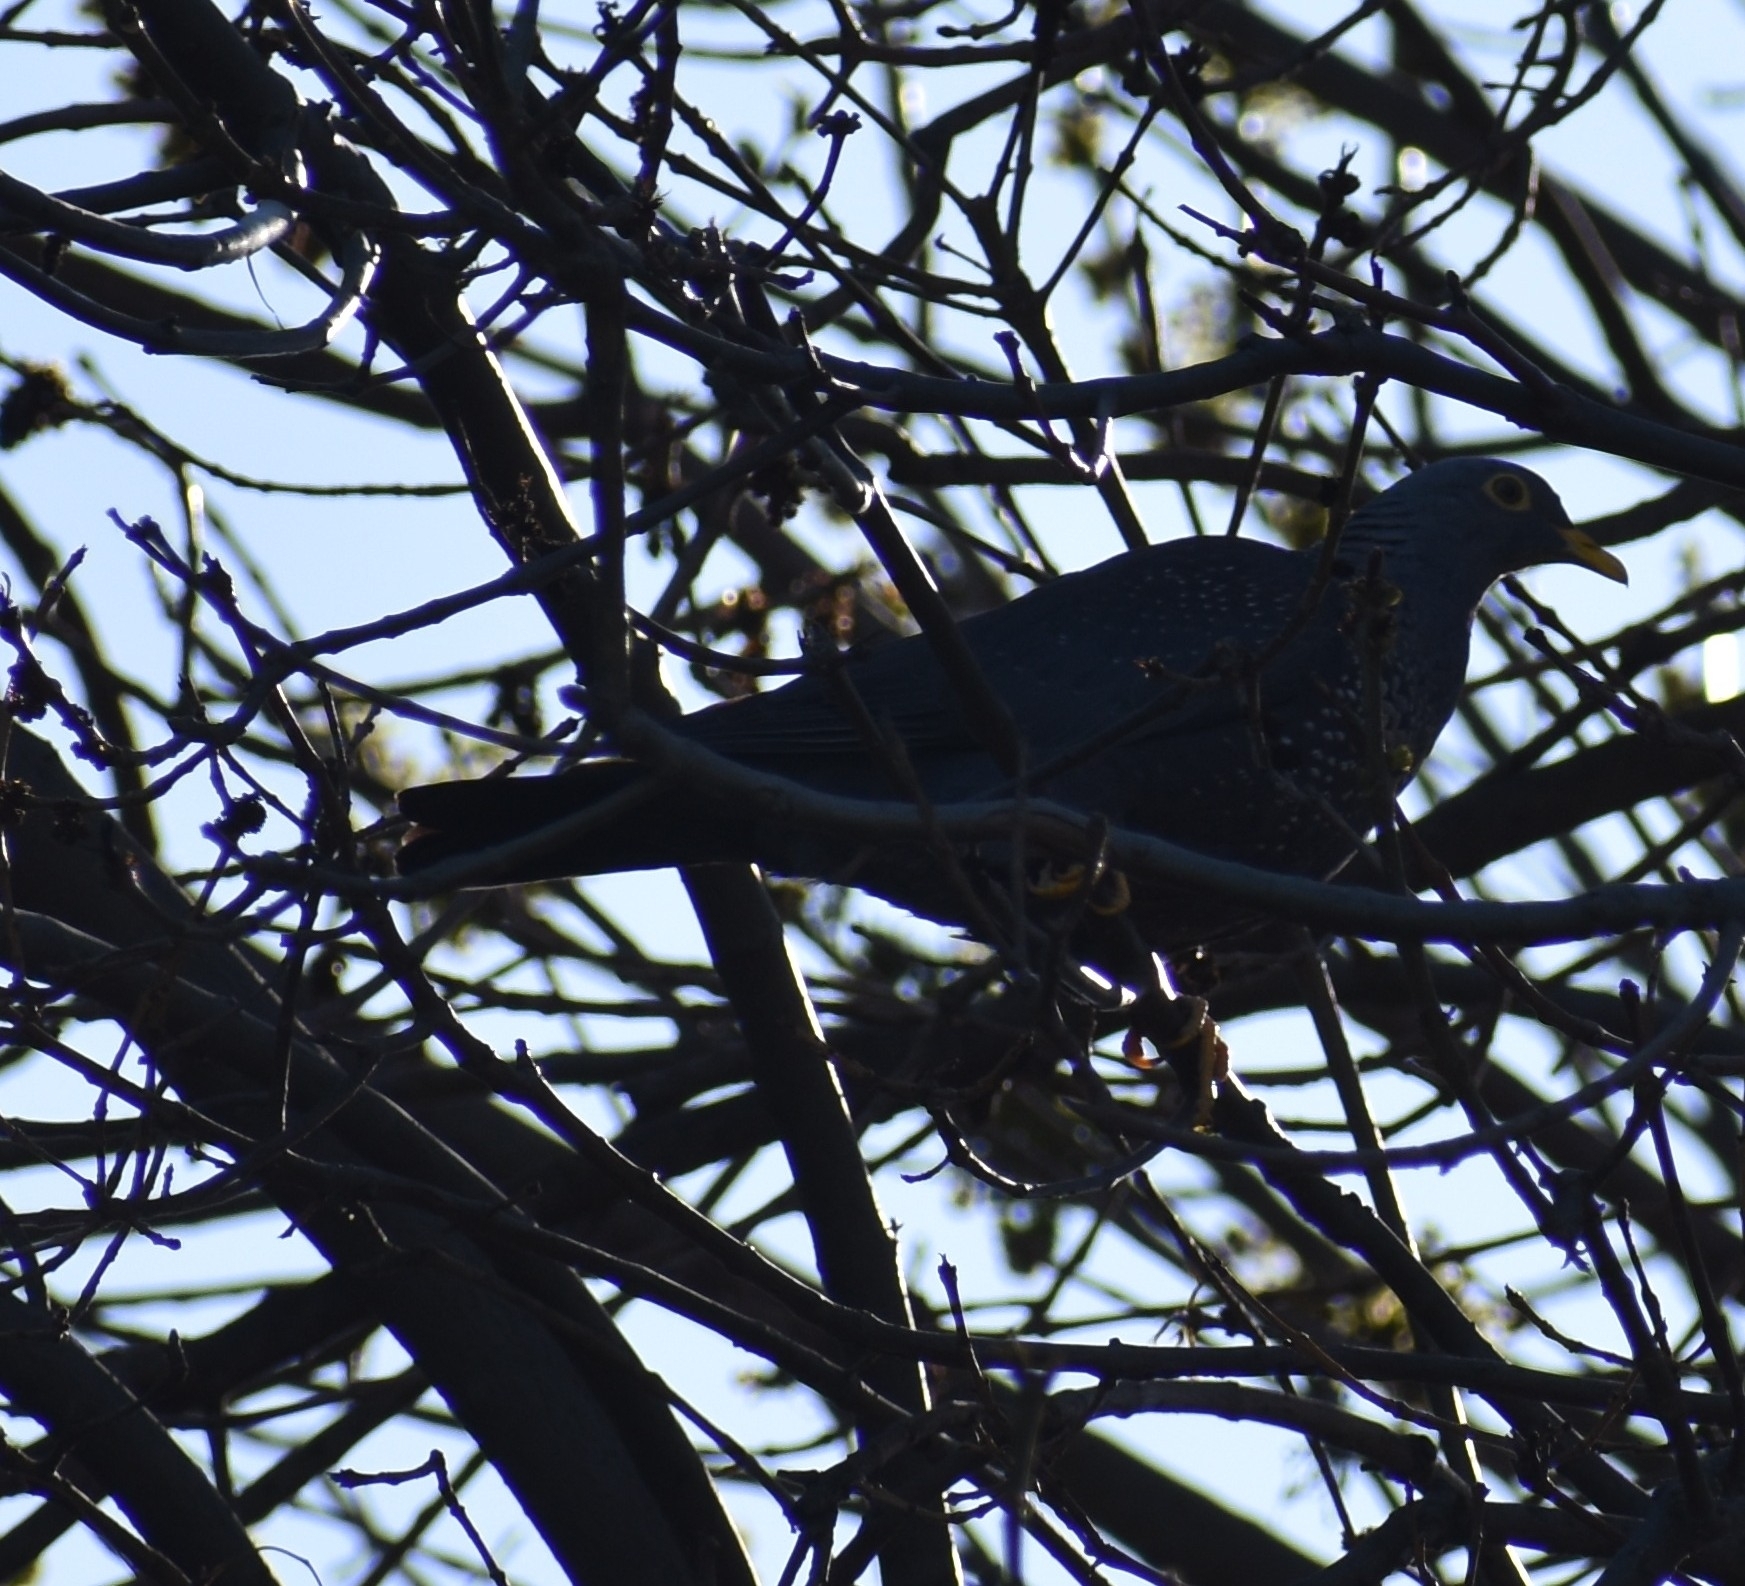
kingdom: Animalia
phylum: Chordata
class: Aves
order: Columbiformes
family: Columbidae
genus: Columba
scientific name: Columba arquatrix
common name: African olive pigeon
